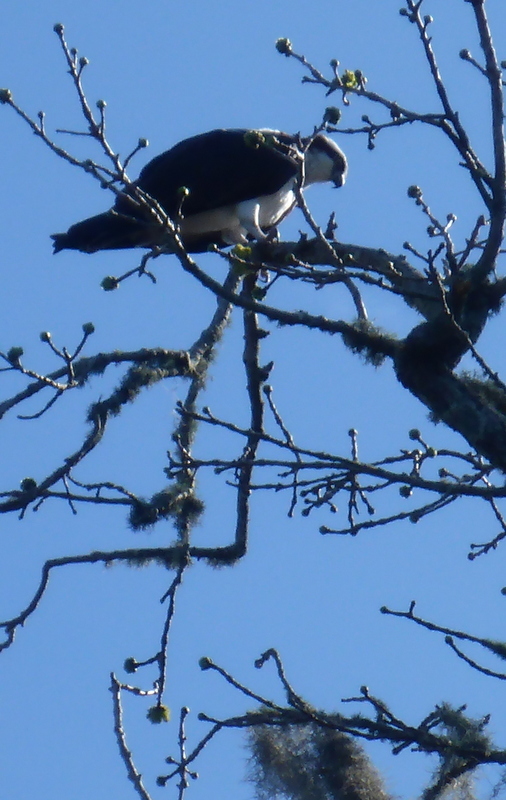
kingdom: Animalia
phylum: Chordata
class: Aves
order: Accipitriformes
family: Pandionidae
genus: Pandion
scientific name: Pandion haliaetus
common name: Osprey
